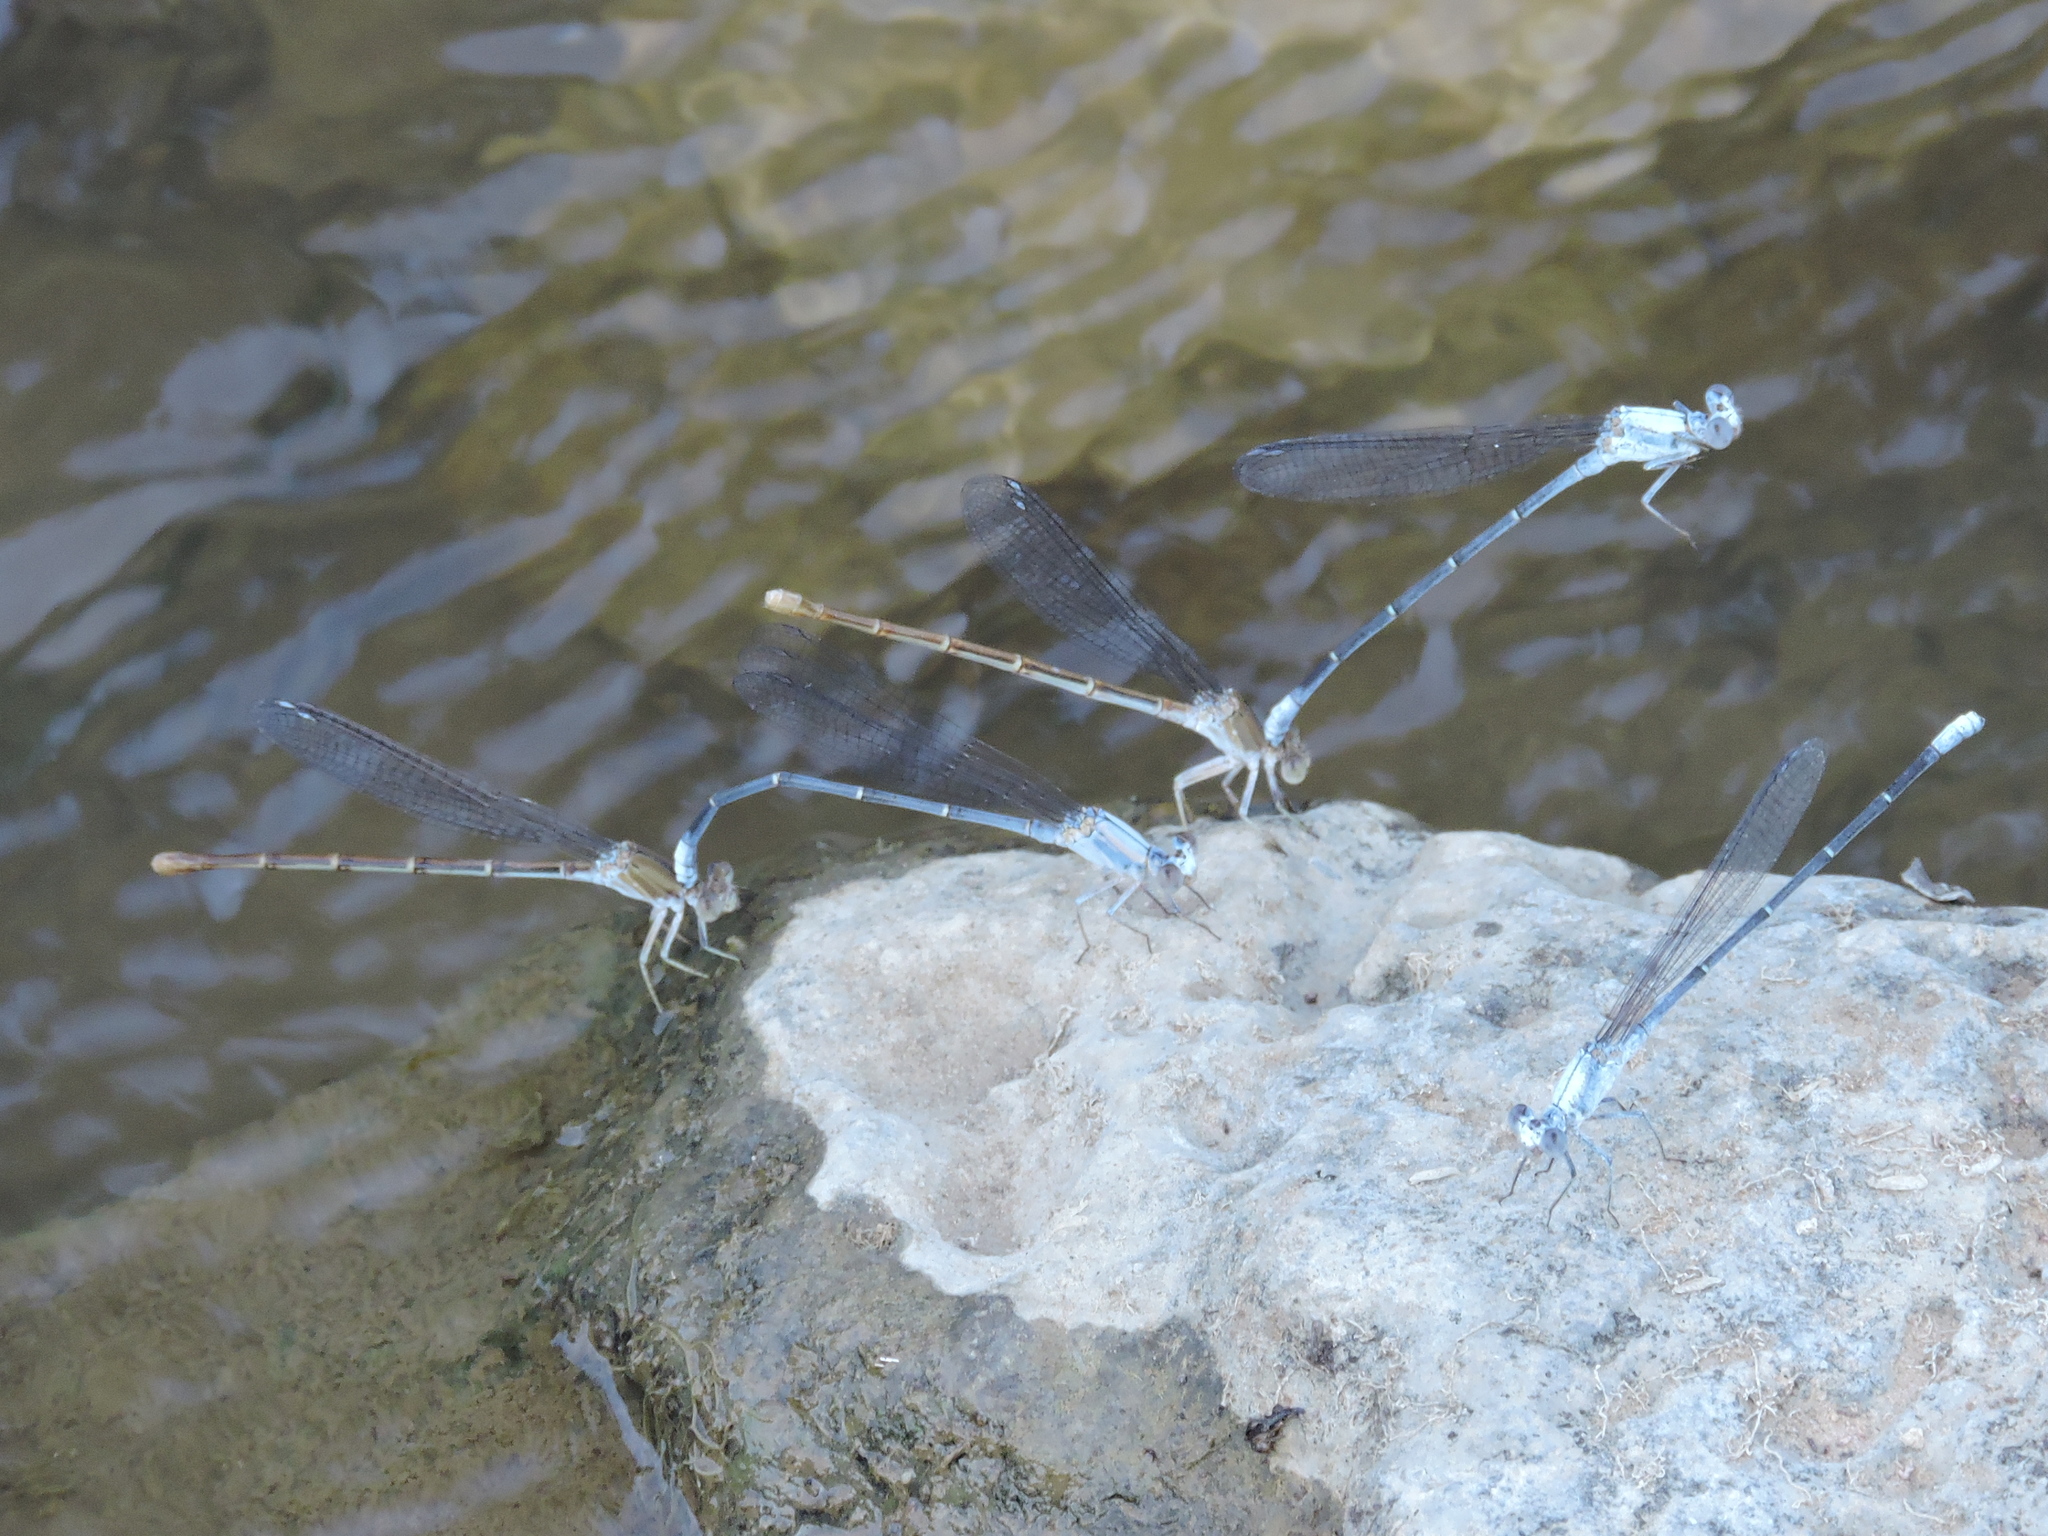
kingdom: Animalia
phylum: Arthropoda
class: Insecta
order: Odonata
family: Coenagrionidae
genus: Argia
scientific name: Argia moesta
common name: Powdered dancer
